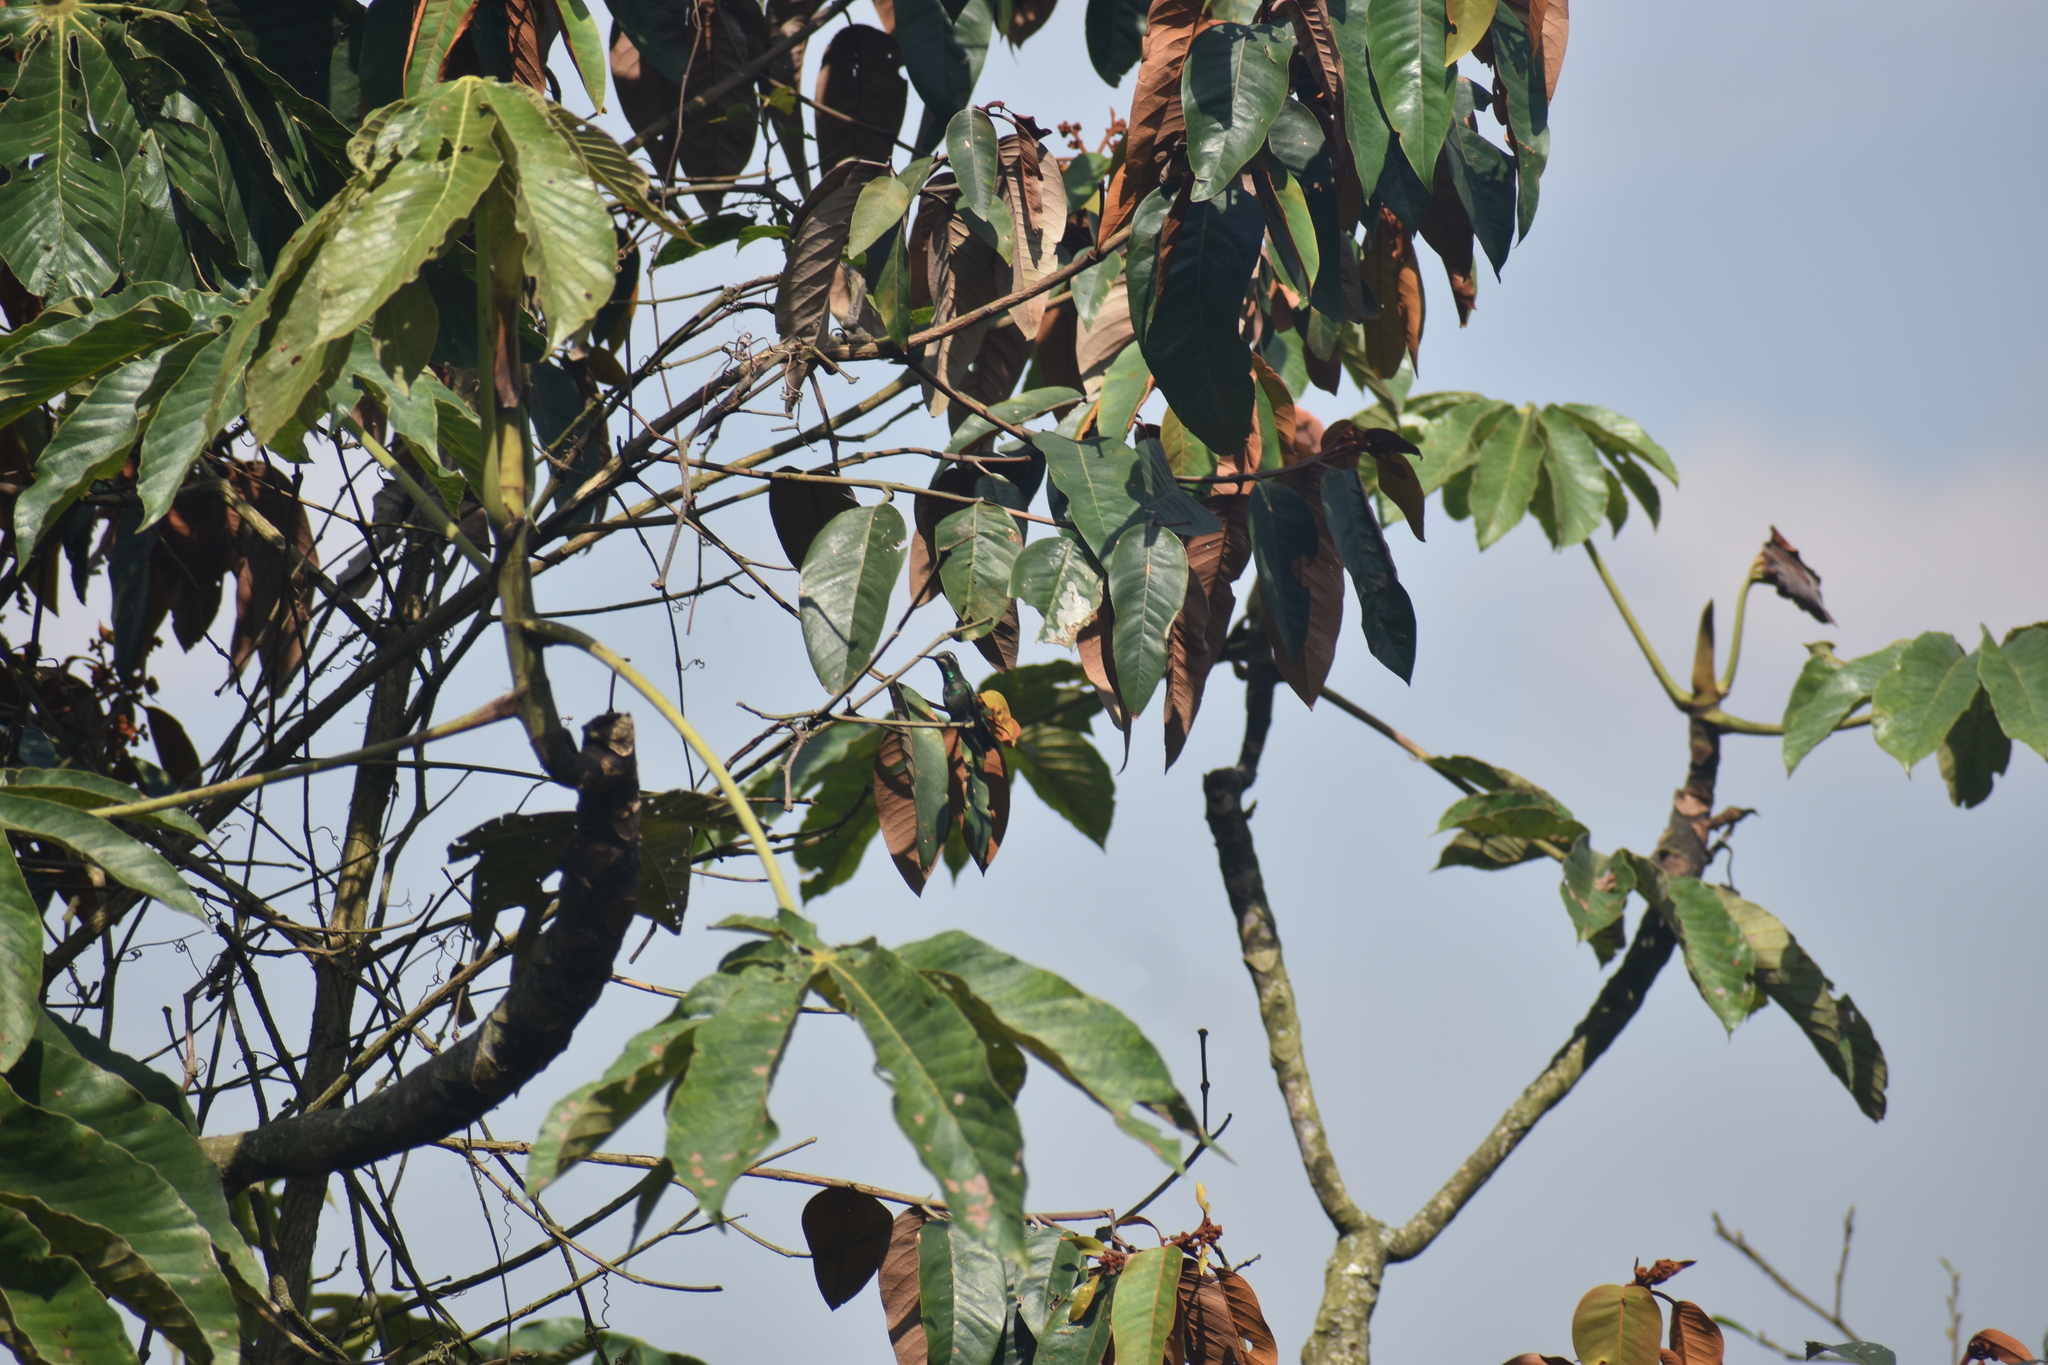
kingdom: Animalia
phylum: Chordata
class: Aves
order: Apodiformes
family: Trochilidae
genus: Chlorostilbon
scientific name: Chlorostilbon melanorhynchus
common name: Western emerald
